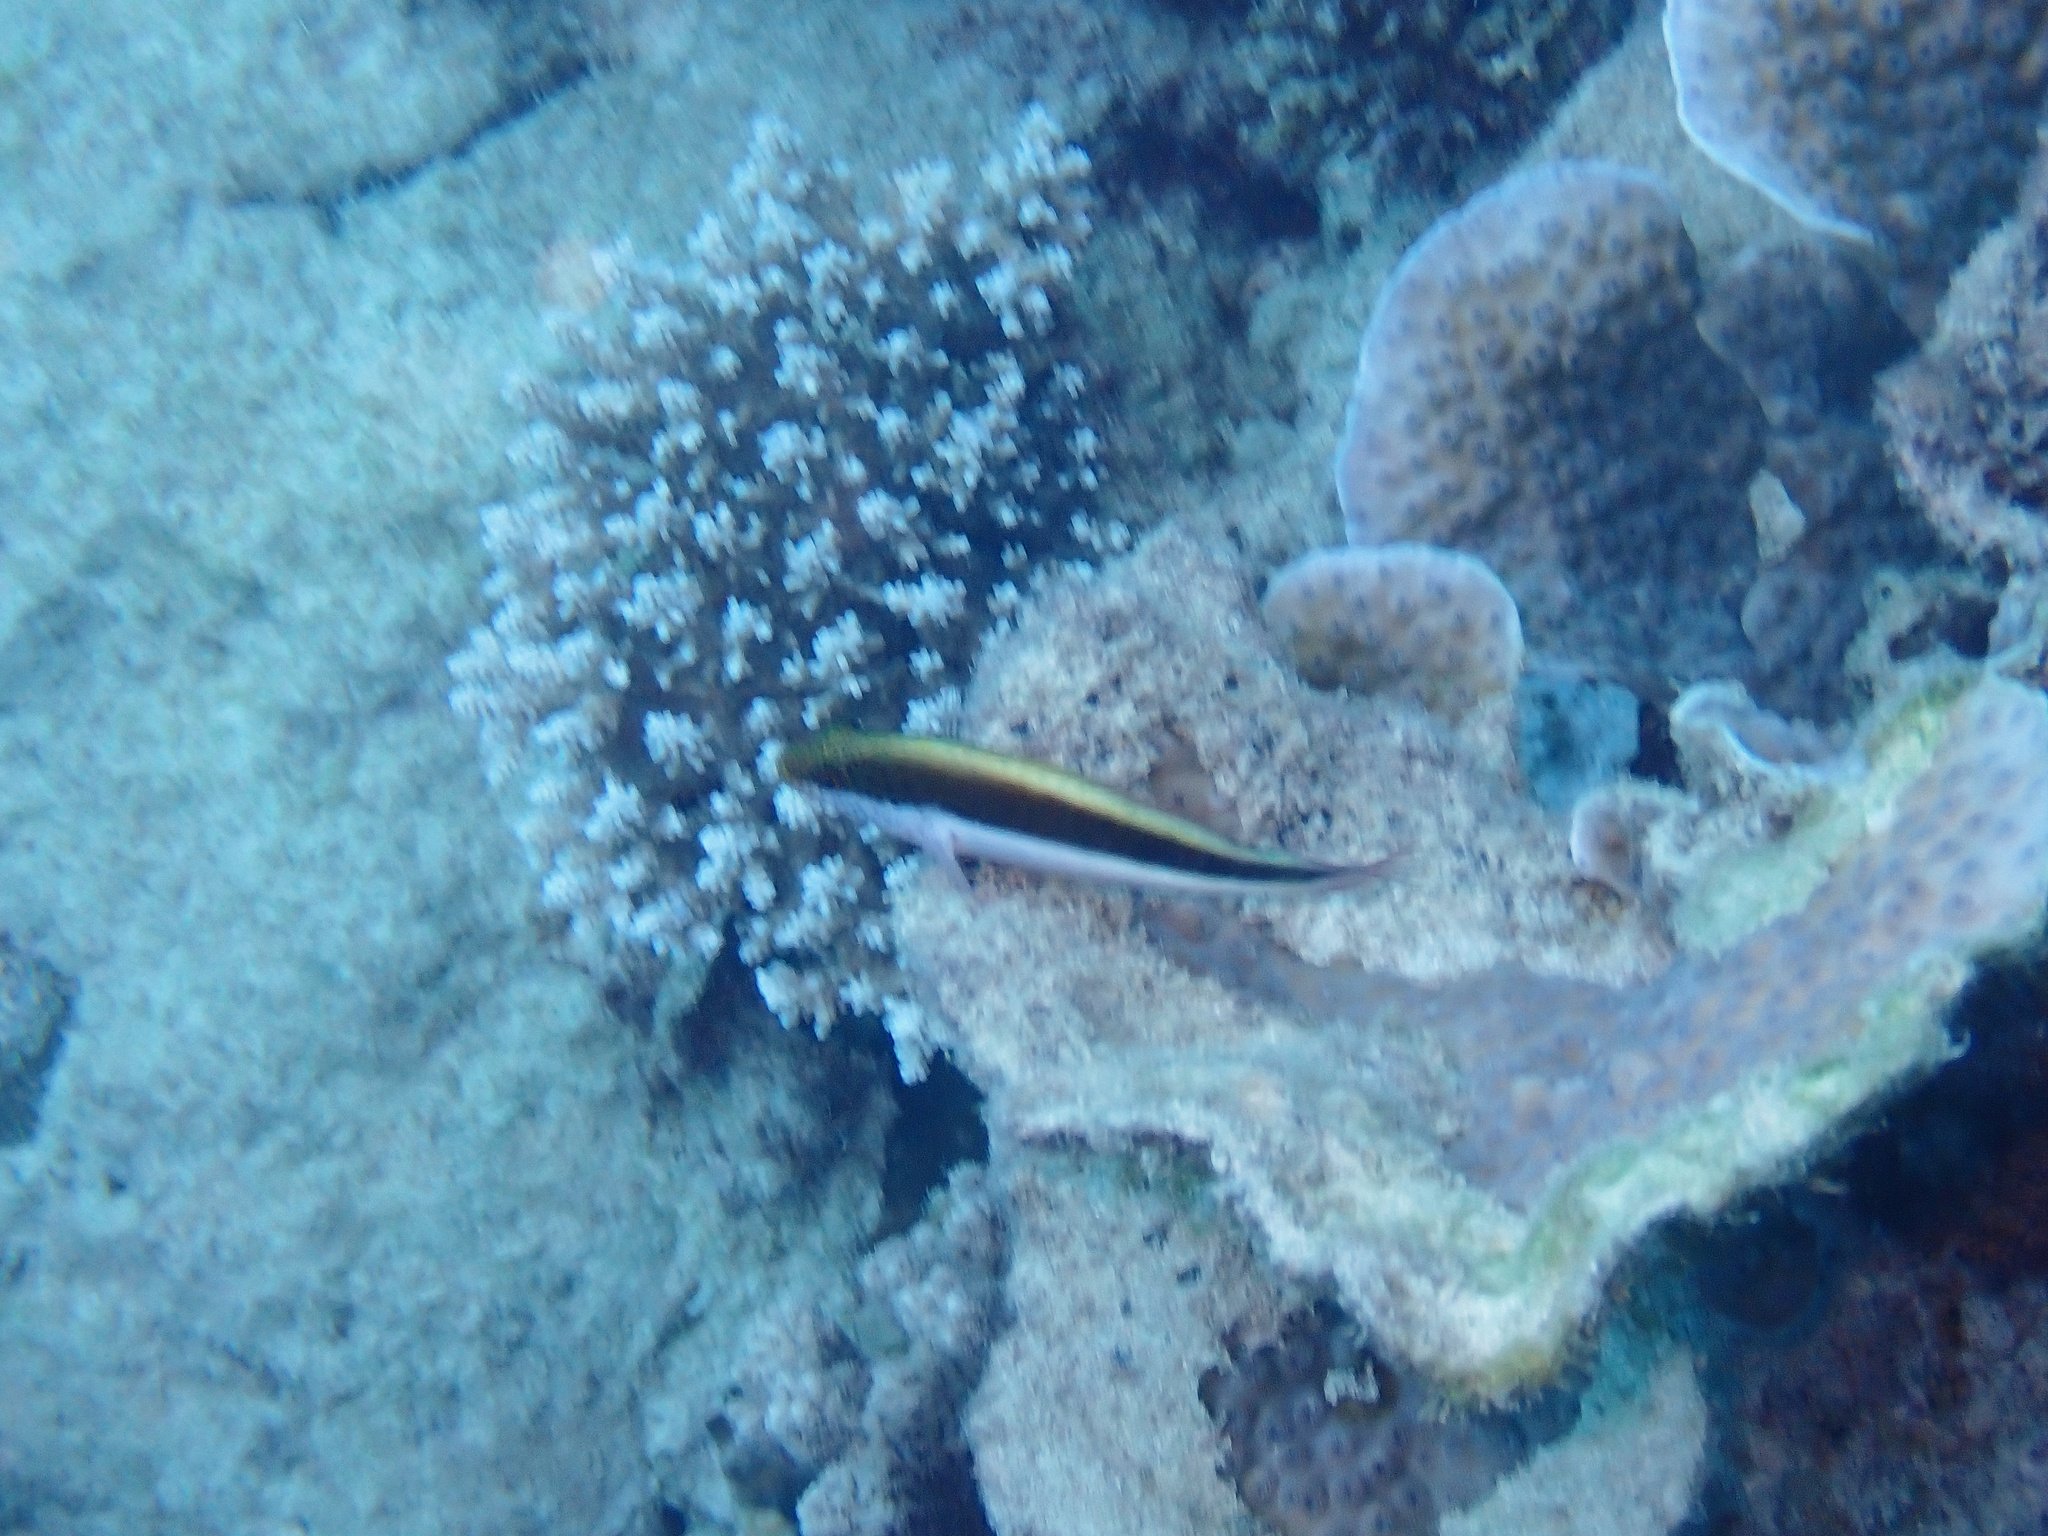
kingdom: Animalia
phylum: Chordata
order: Perciformes
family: Cirrhitidae
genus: Paracirrhites
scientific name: Paracirrhites forsteri
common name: Freckled hawkfish
